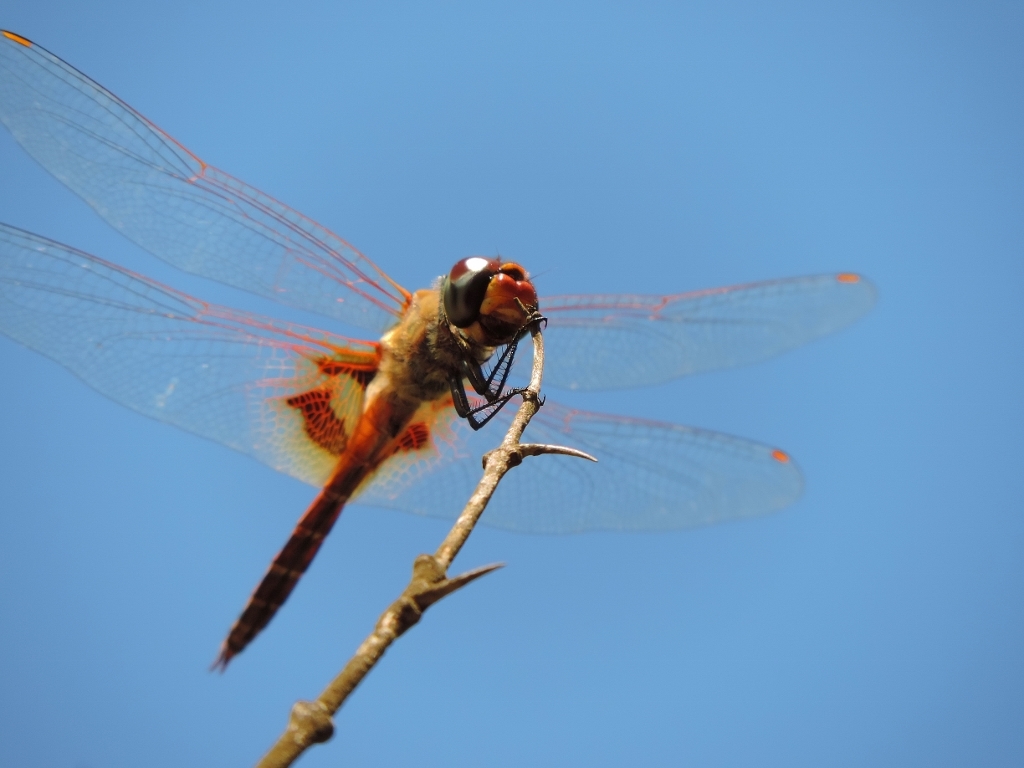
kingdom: Animalia
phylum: Arthropoda
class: Insecta
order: Odonata
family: Libellulidae
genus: Tramea
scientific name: Tramea basilaris
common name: Keyhole glider
